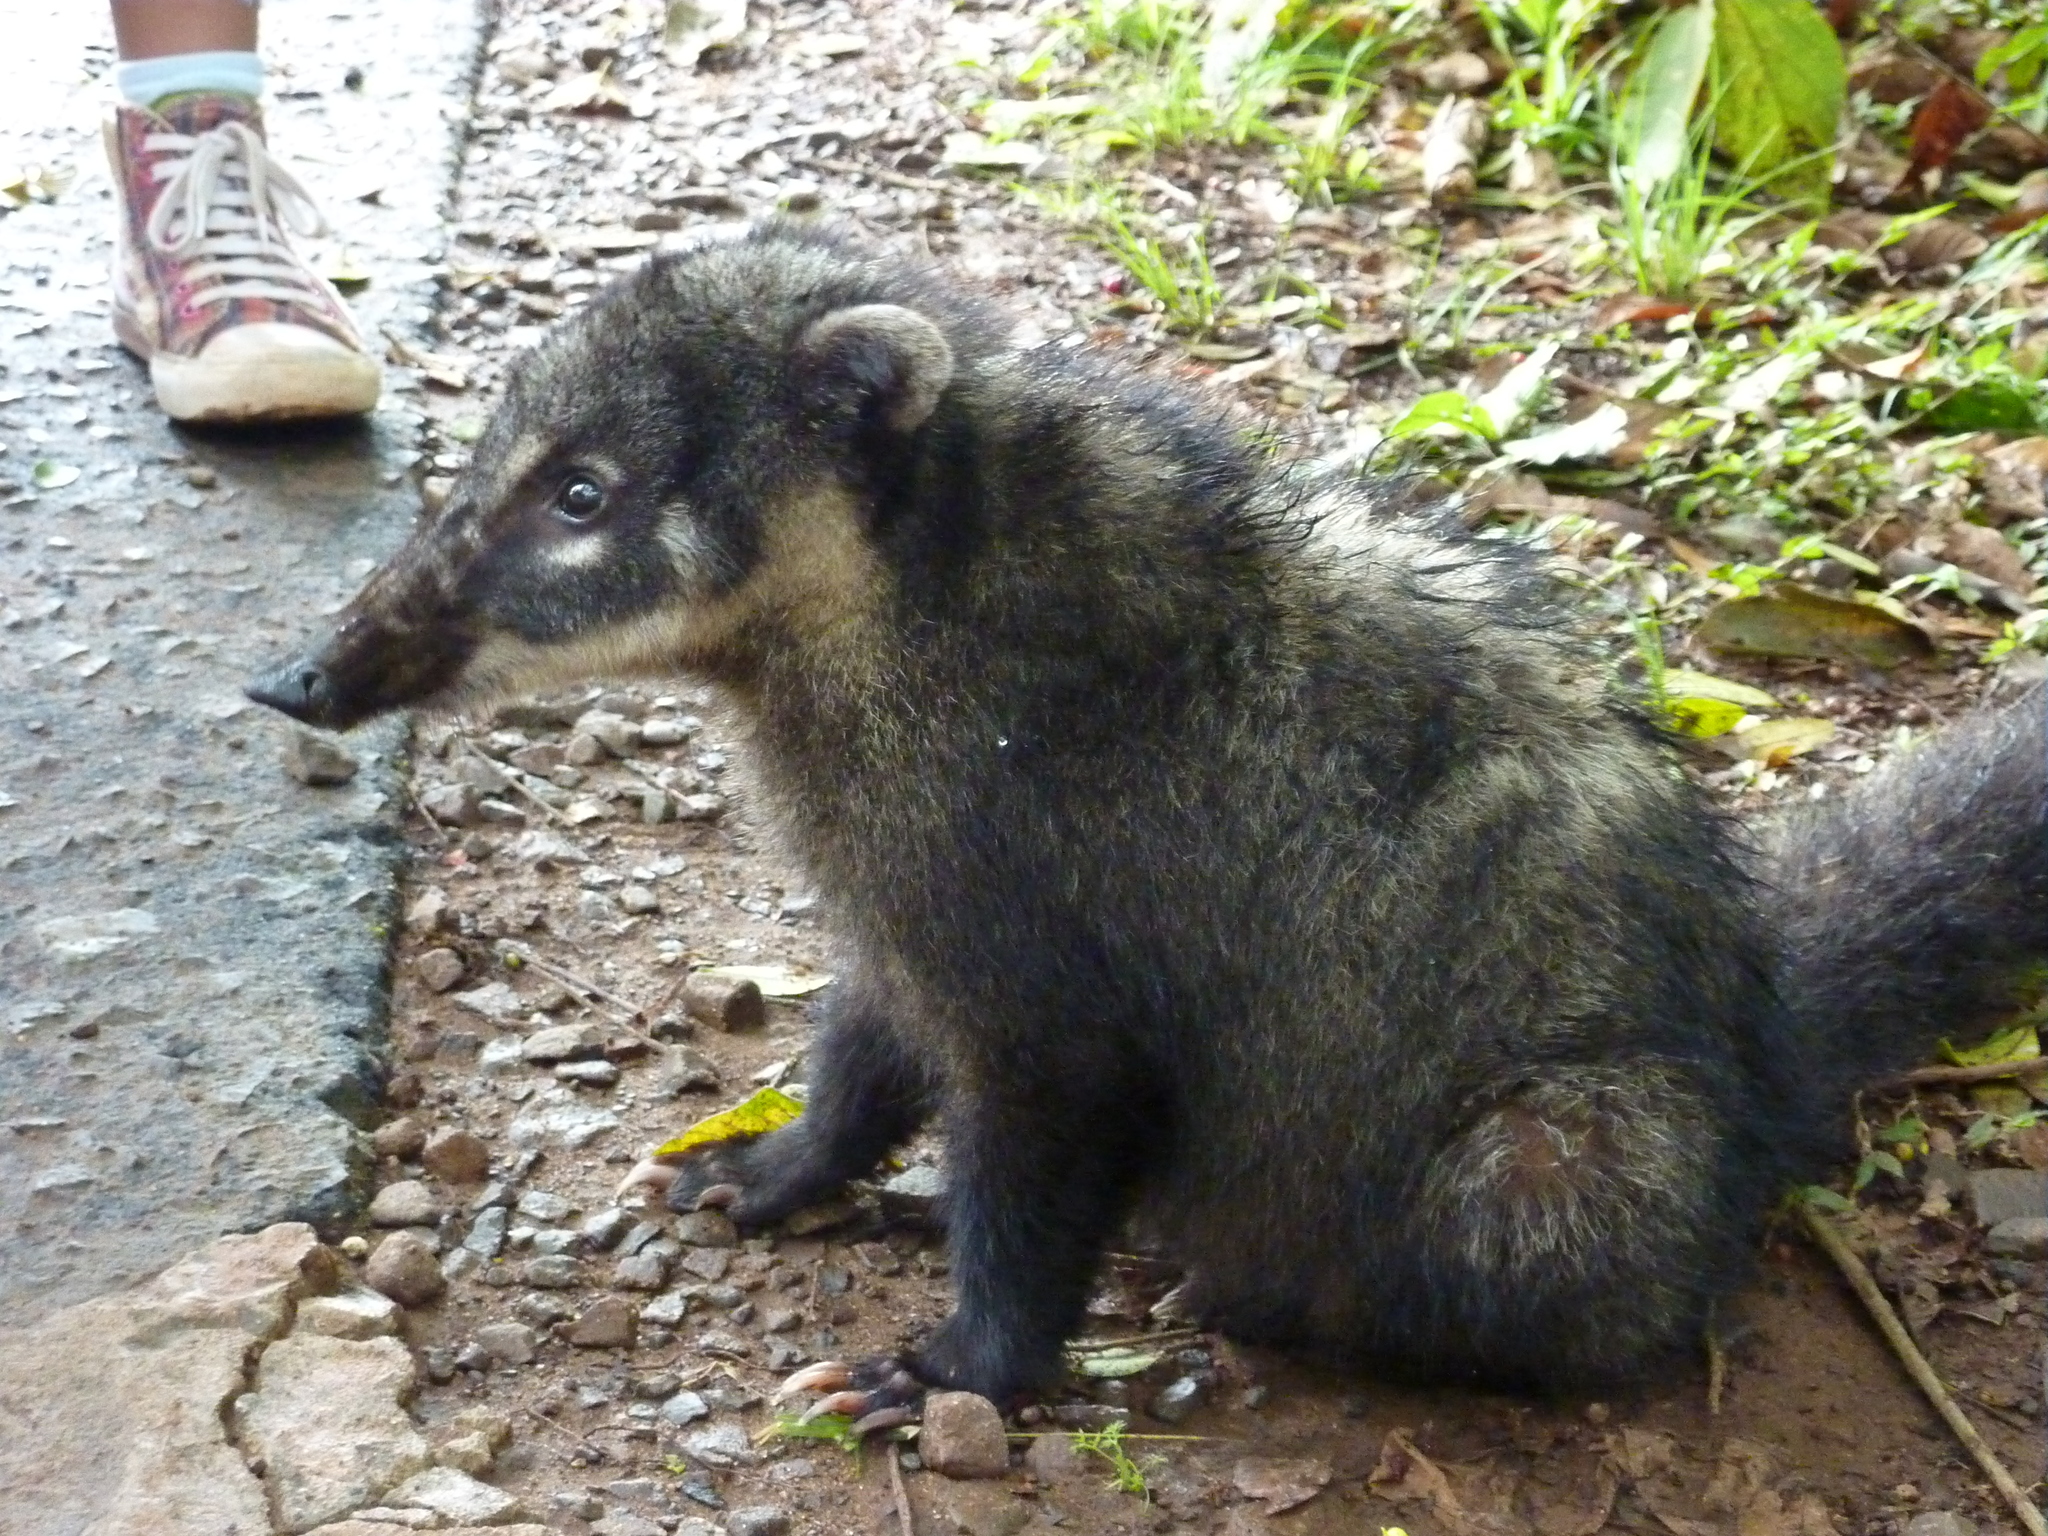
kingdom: Animalia
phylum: Chordata
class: Mammalia
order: Carnivora
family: Procyonidae
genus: Nasua
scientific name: Nasua nasua
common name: South american coati
